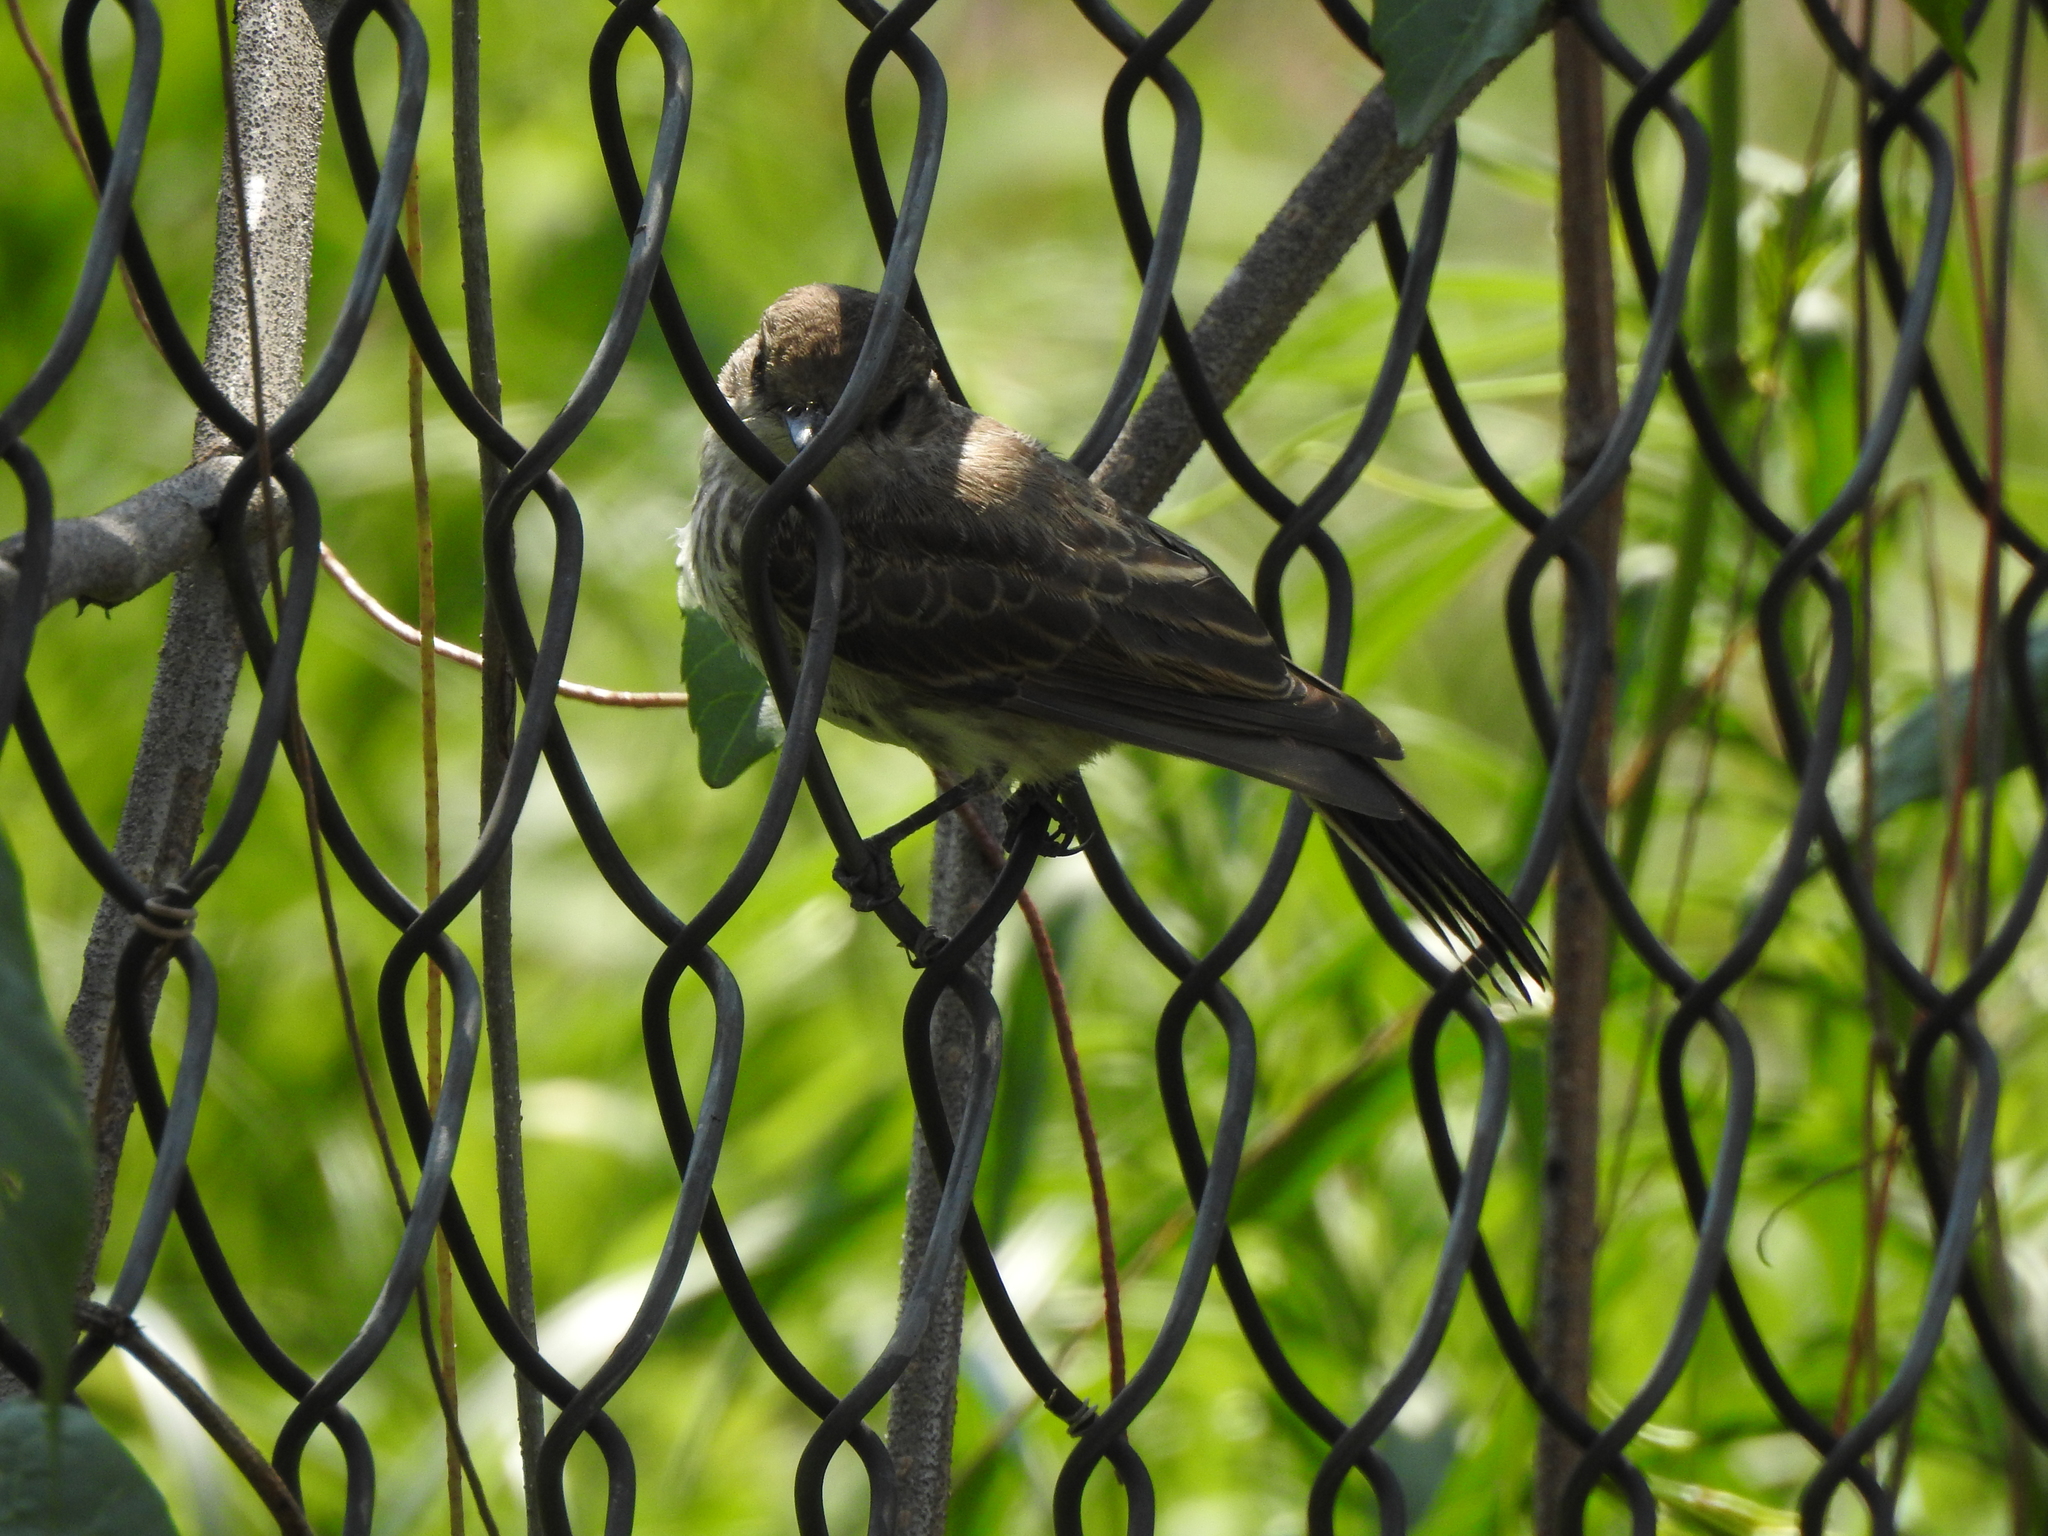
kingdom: Animalia
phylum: Chordata
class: Aves
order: Passeriformes
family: Tyrannidae
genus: Pyrocephalus
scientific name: Pyrocephalus rubinus
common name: Vermilion flycatcher
